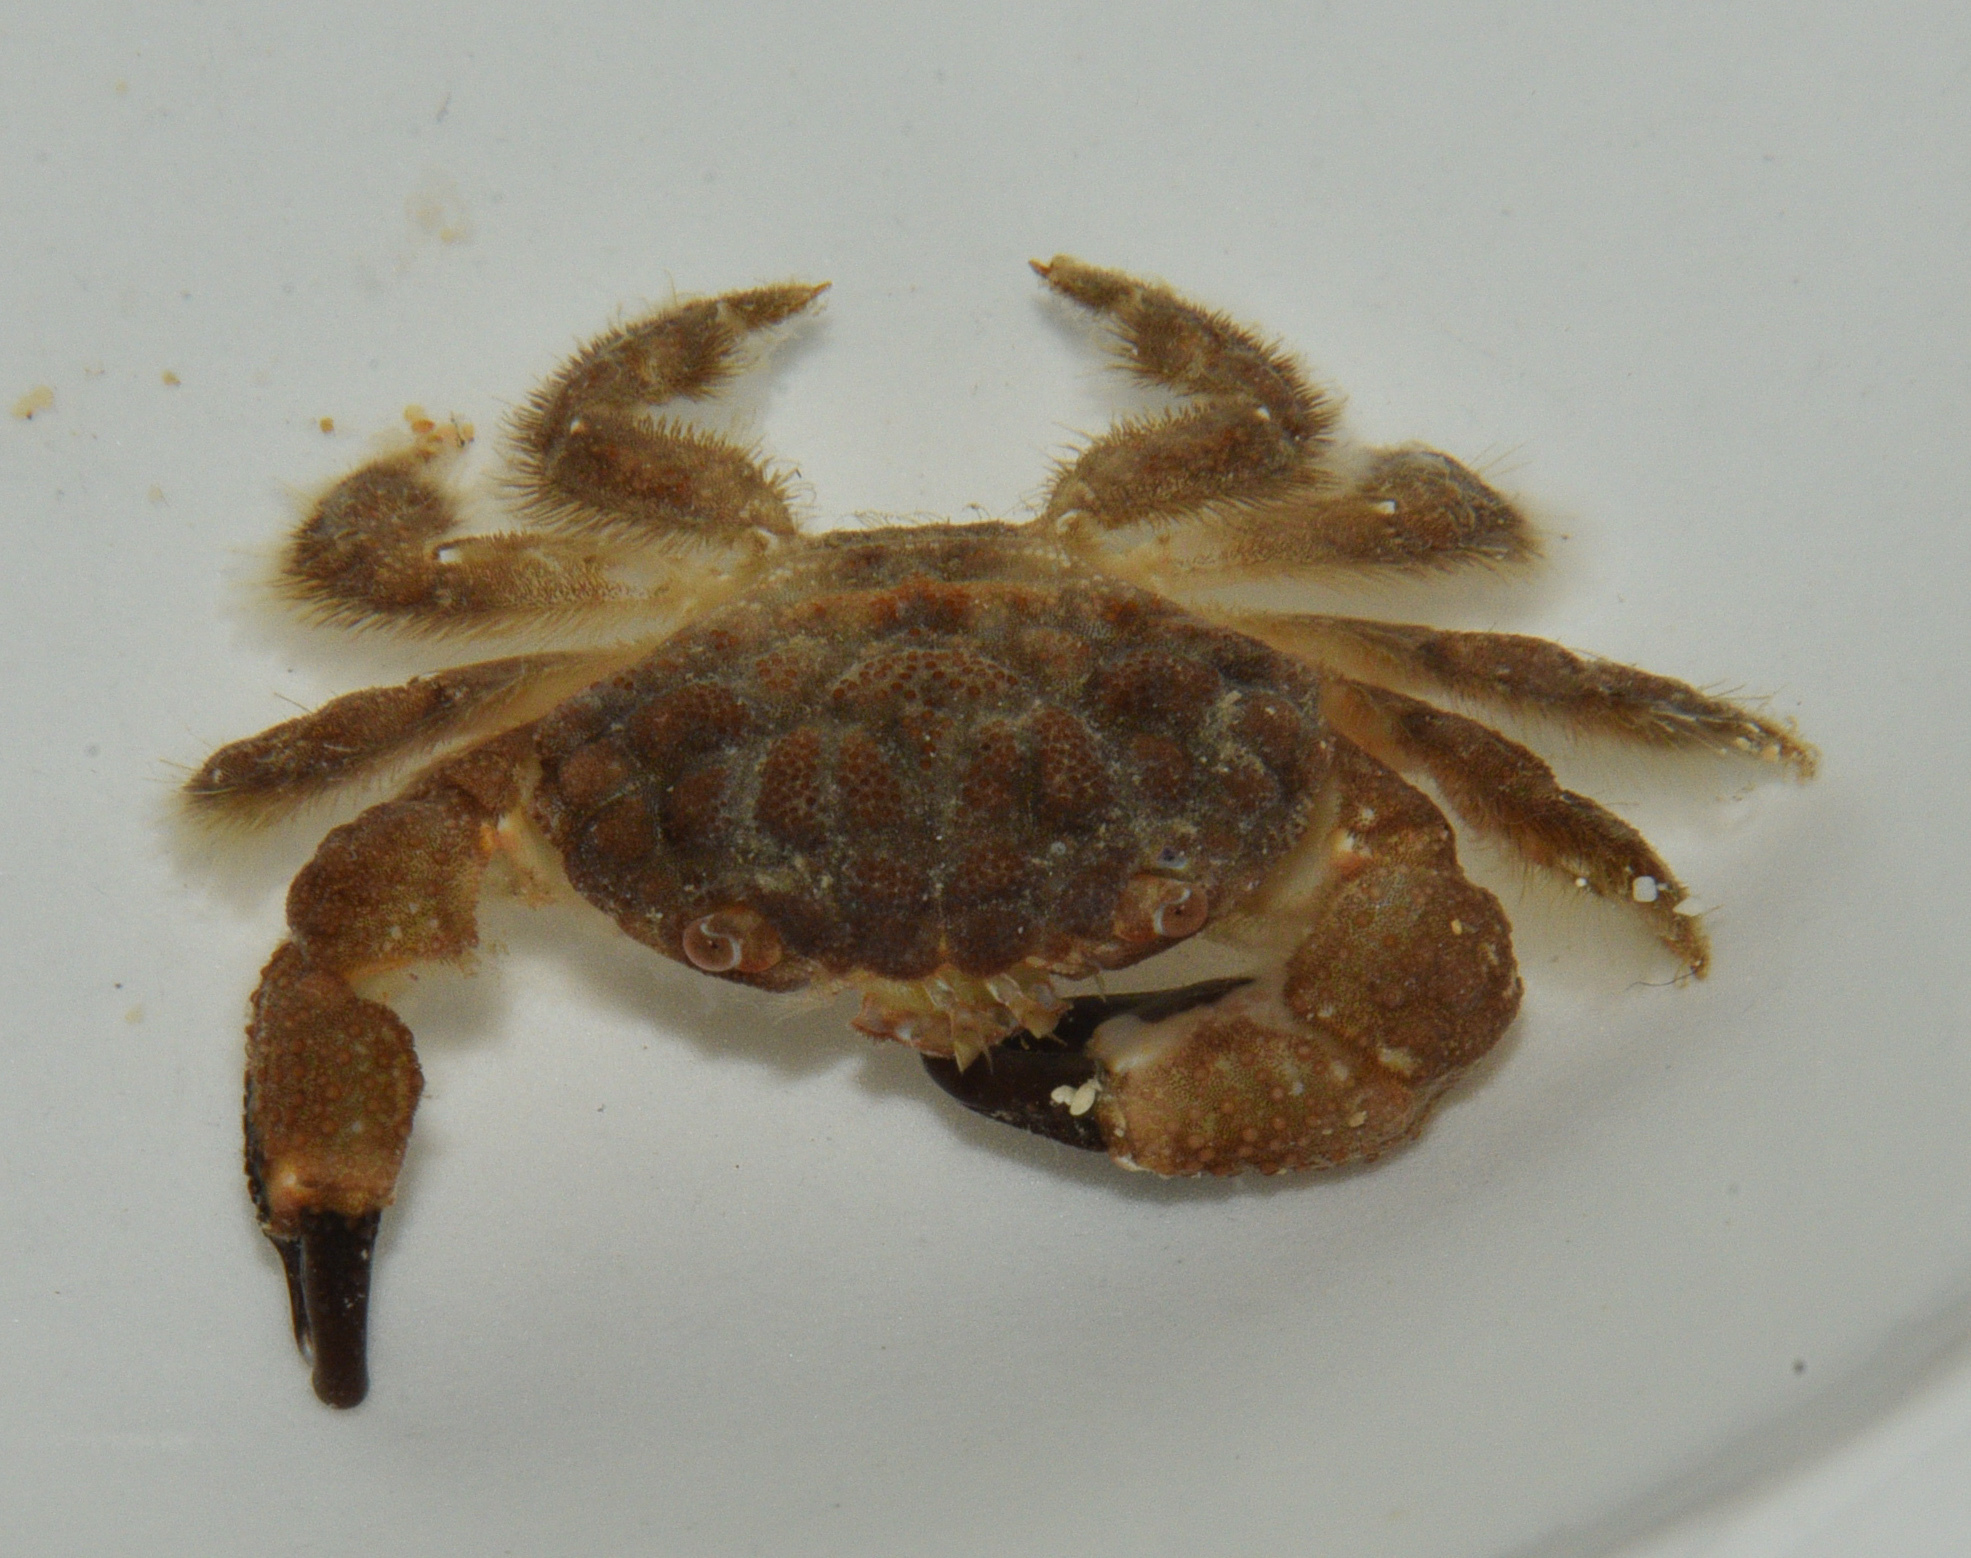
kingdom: Animalia
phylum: Arthropoda
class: Malacostraca
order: Decapoda
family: Xanthidae
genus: Pilodius
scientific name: Pilodius areolatus
